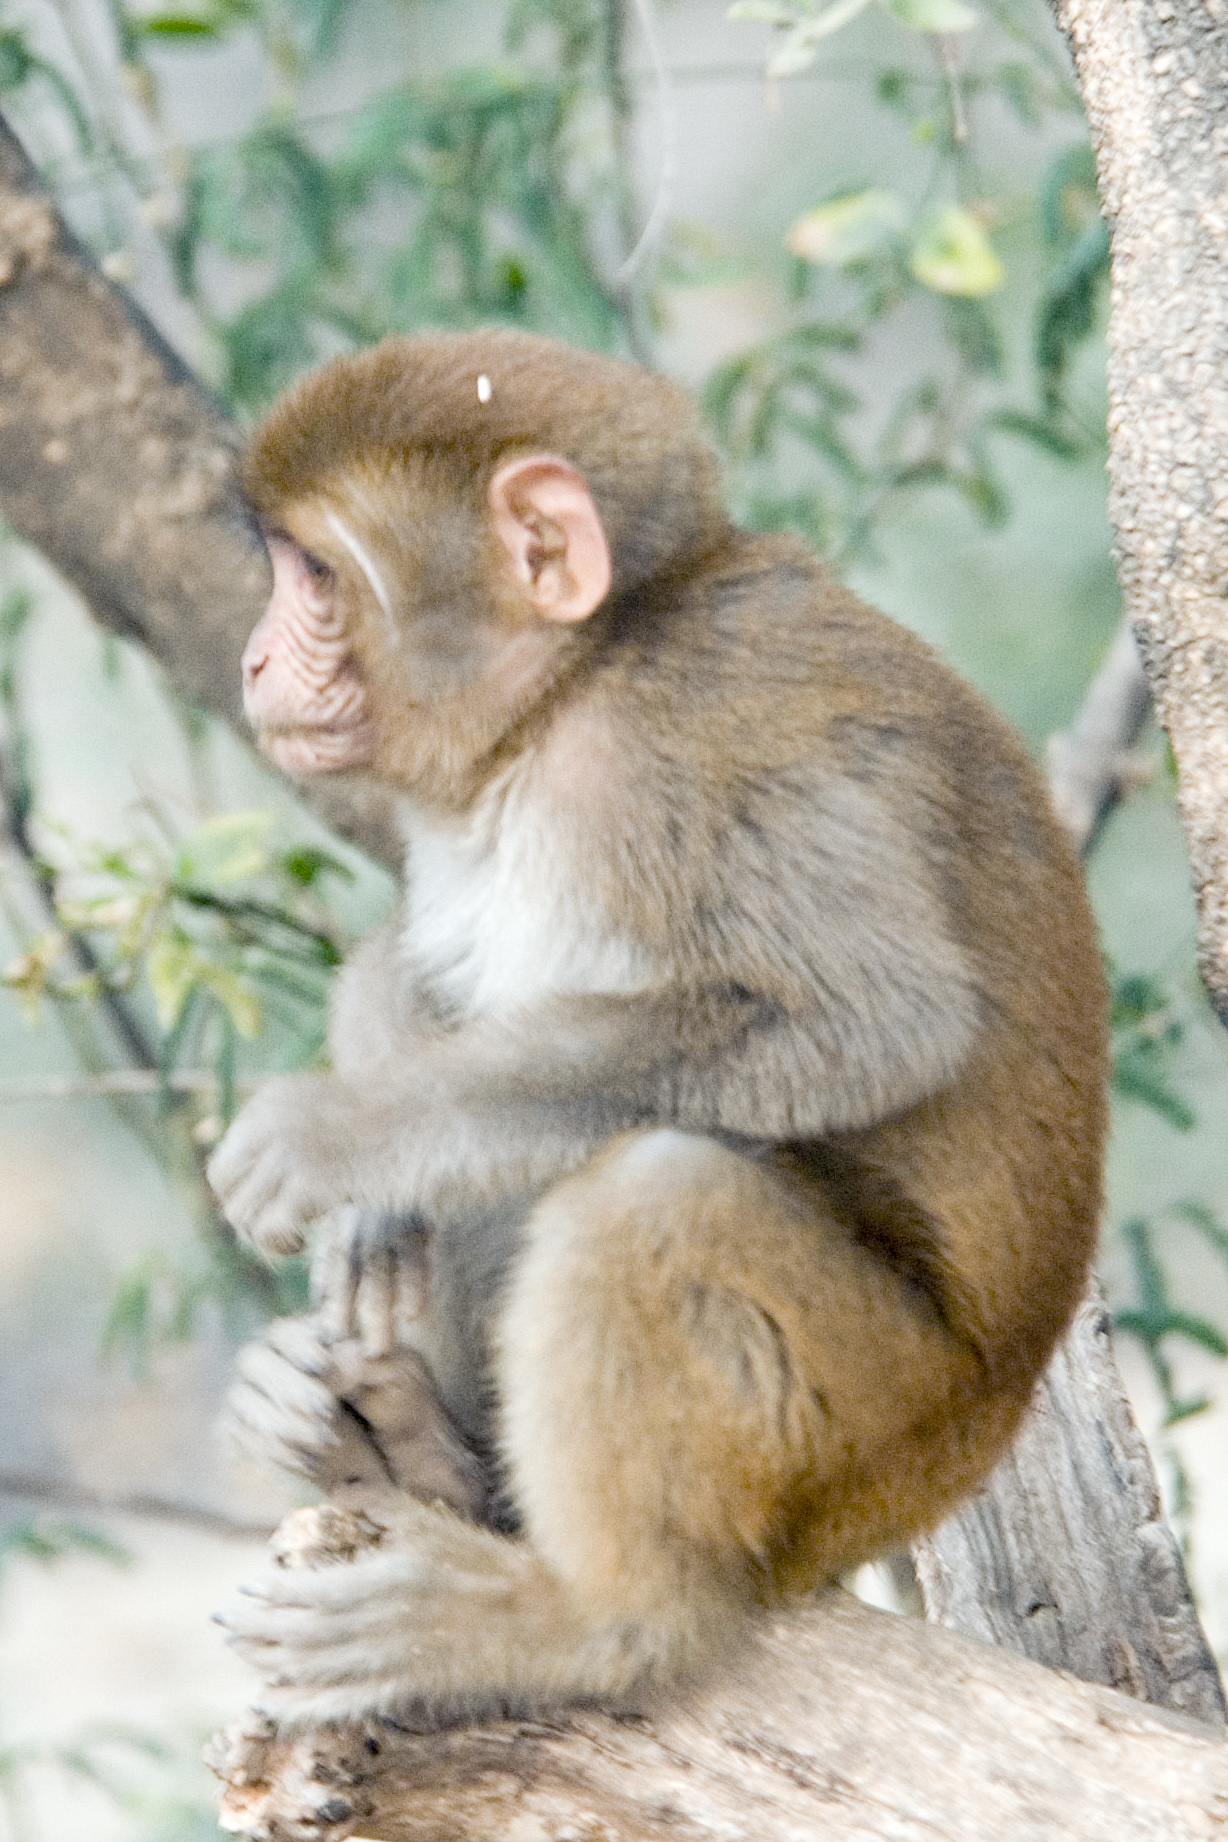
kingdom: Animalia
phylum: Chordata
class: Mammalia
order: Primates
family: Cercopithecidae
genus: Macaca
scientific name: Macaca mulatta
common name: Rhesus monkey
